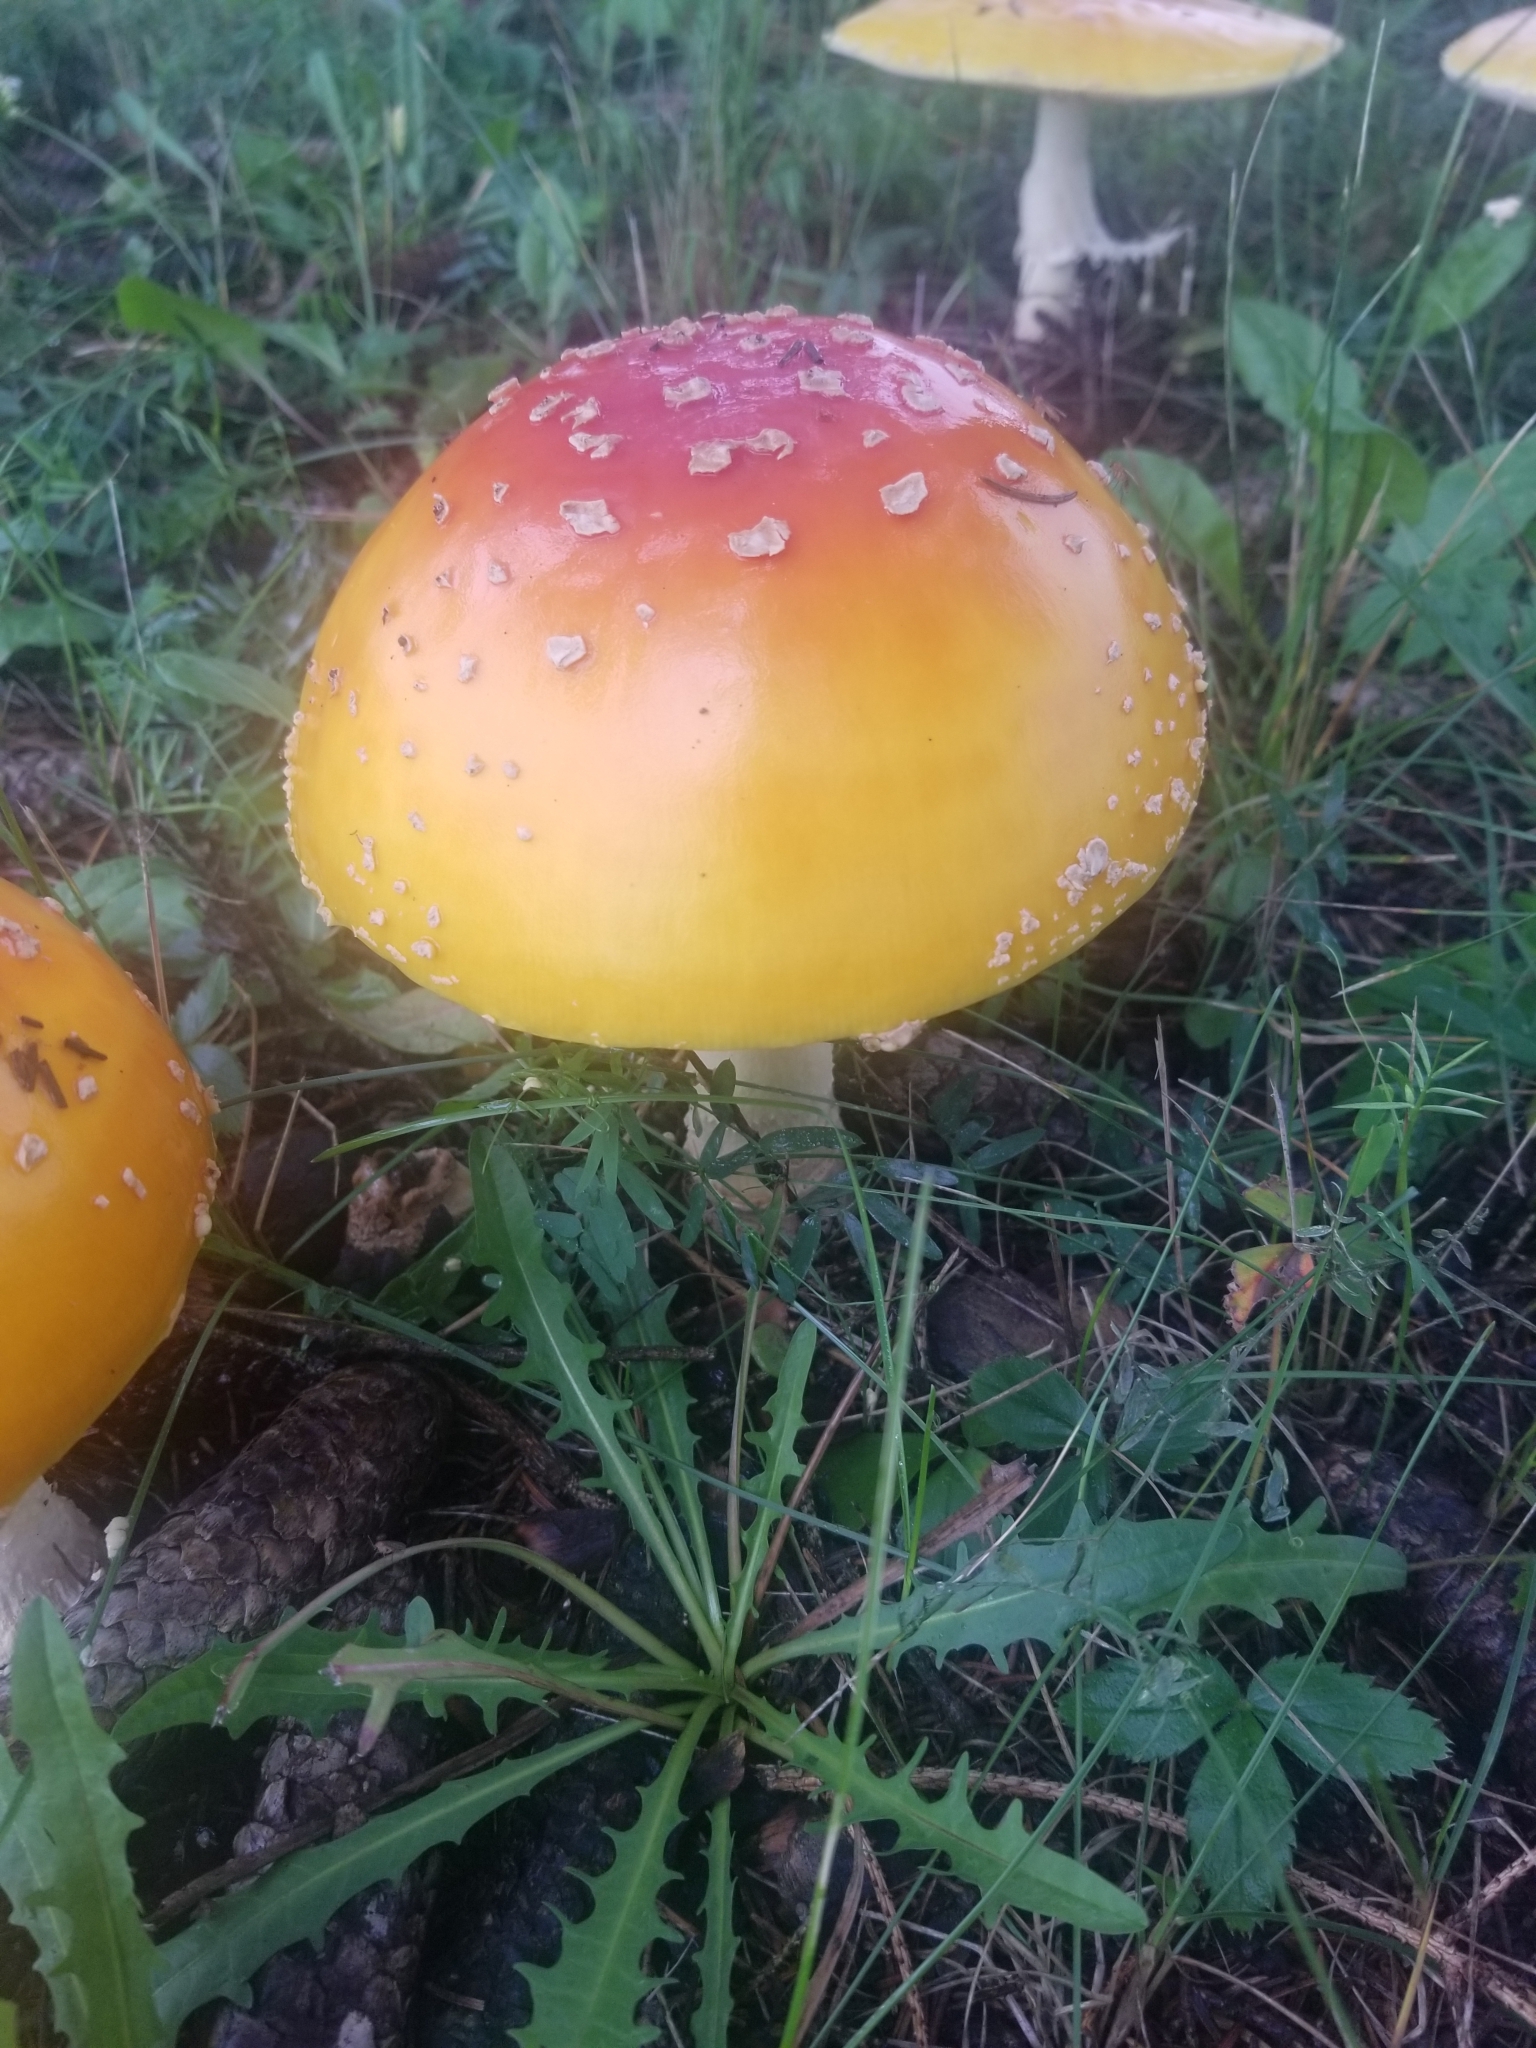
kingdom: Fungi
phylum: Basidiomycota
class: Agaricomycetes
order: Agaricales
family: Amanitaceae
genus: Amanita
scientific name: Amanita muscaria
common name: Fly agaric
